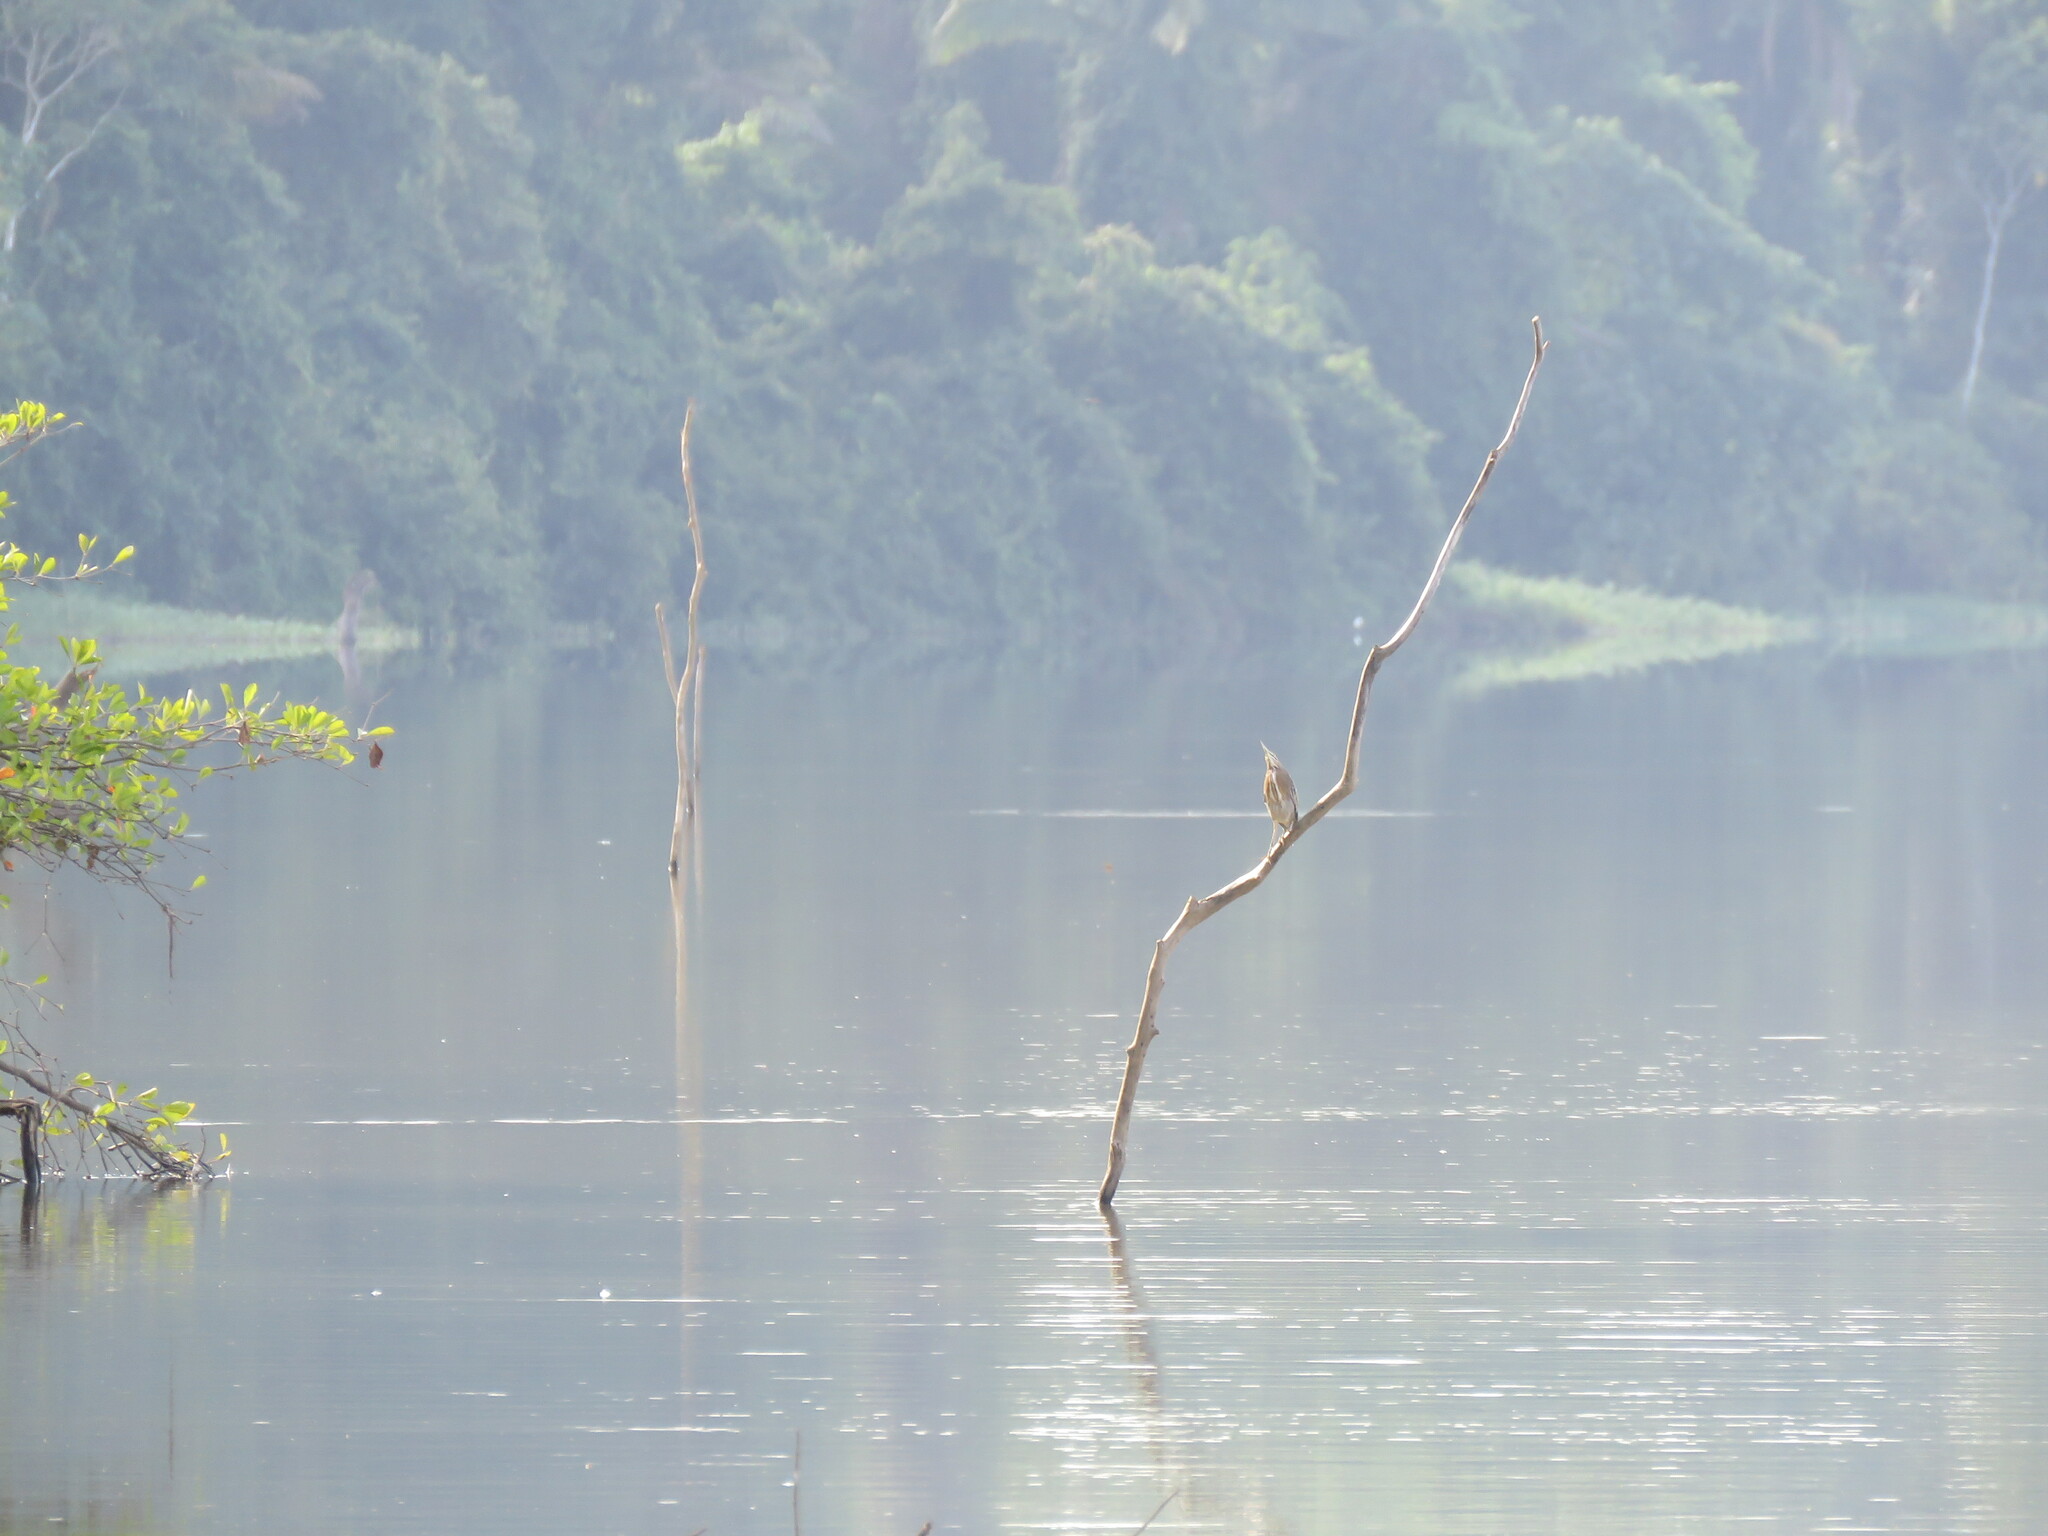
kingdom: Animalia
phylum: Chordata
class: Aves
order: Pelecaniformes
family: Ardeidae
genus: Butorides
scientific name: Butorides striata
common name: Striated heron
